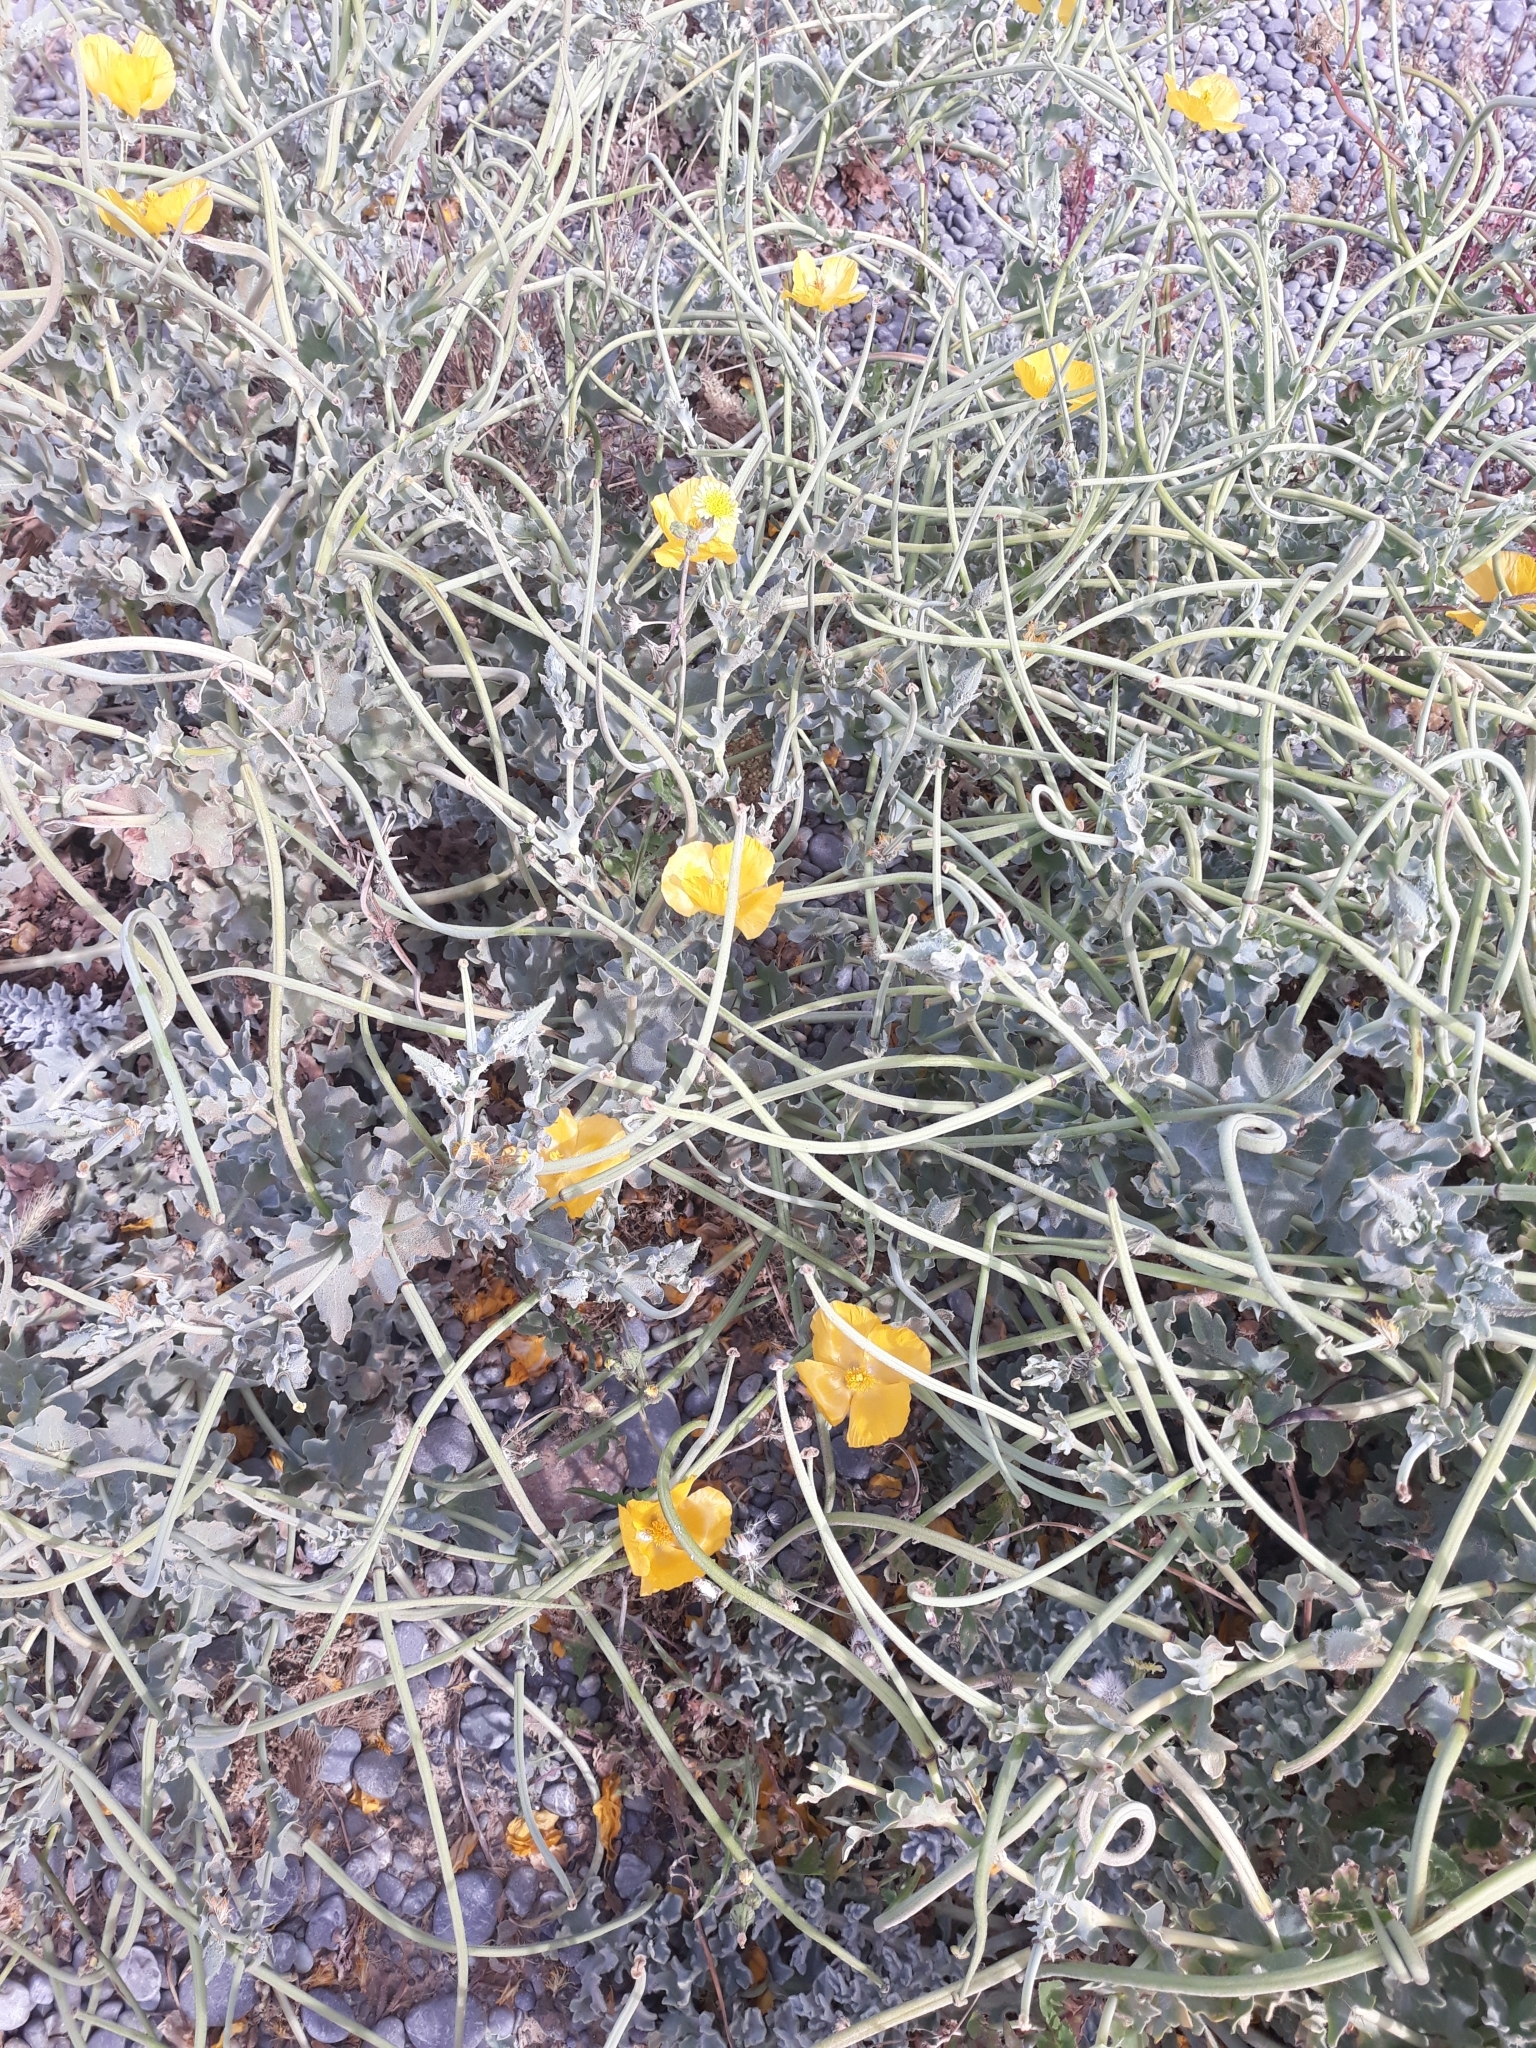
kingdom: Plantae
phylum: Tracheophyta
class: Magnoliopsida
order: Ranunculales
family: Papaveraceae
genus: Glaucium
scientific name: Glaucium flavum
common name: Yellow horned-poppy
